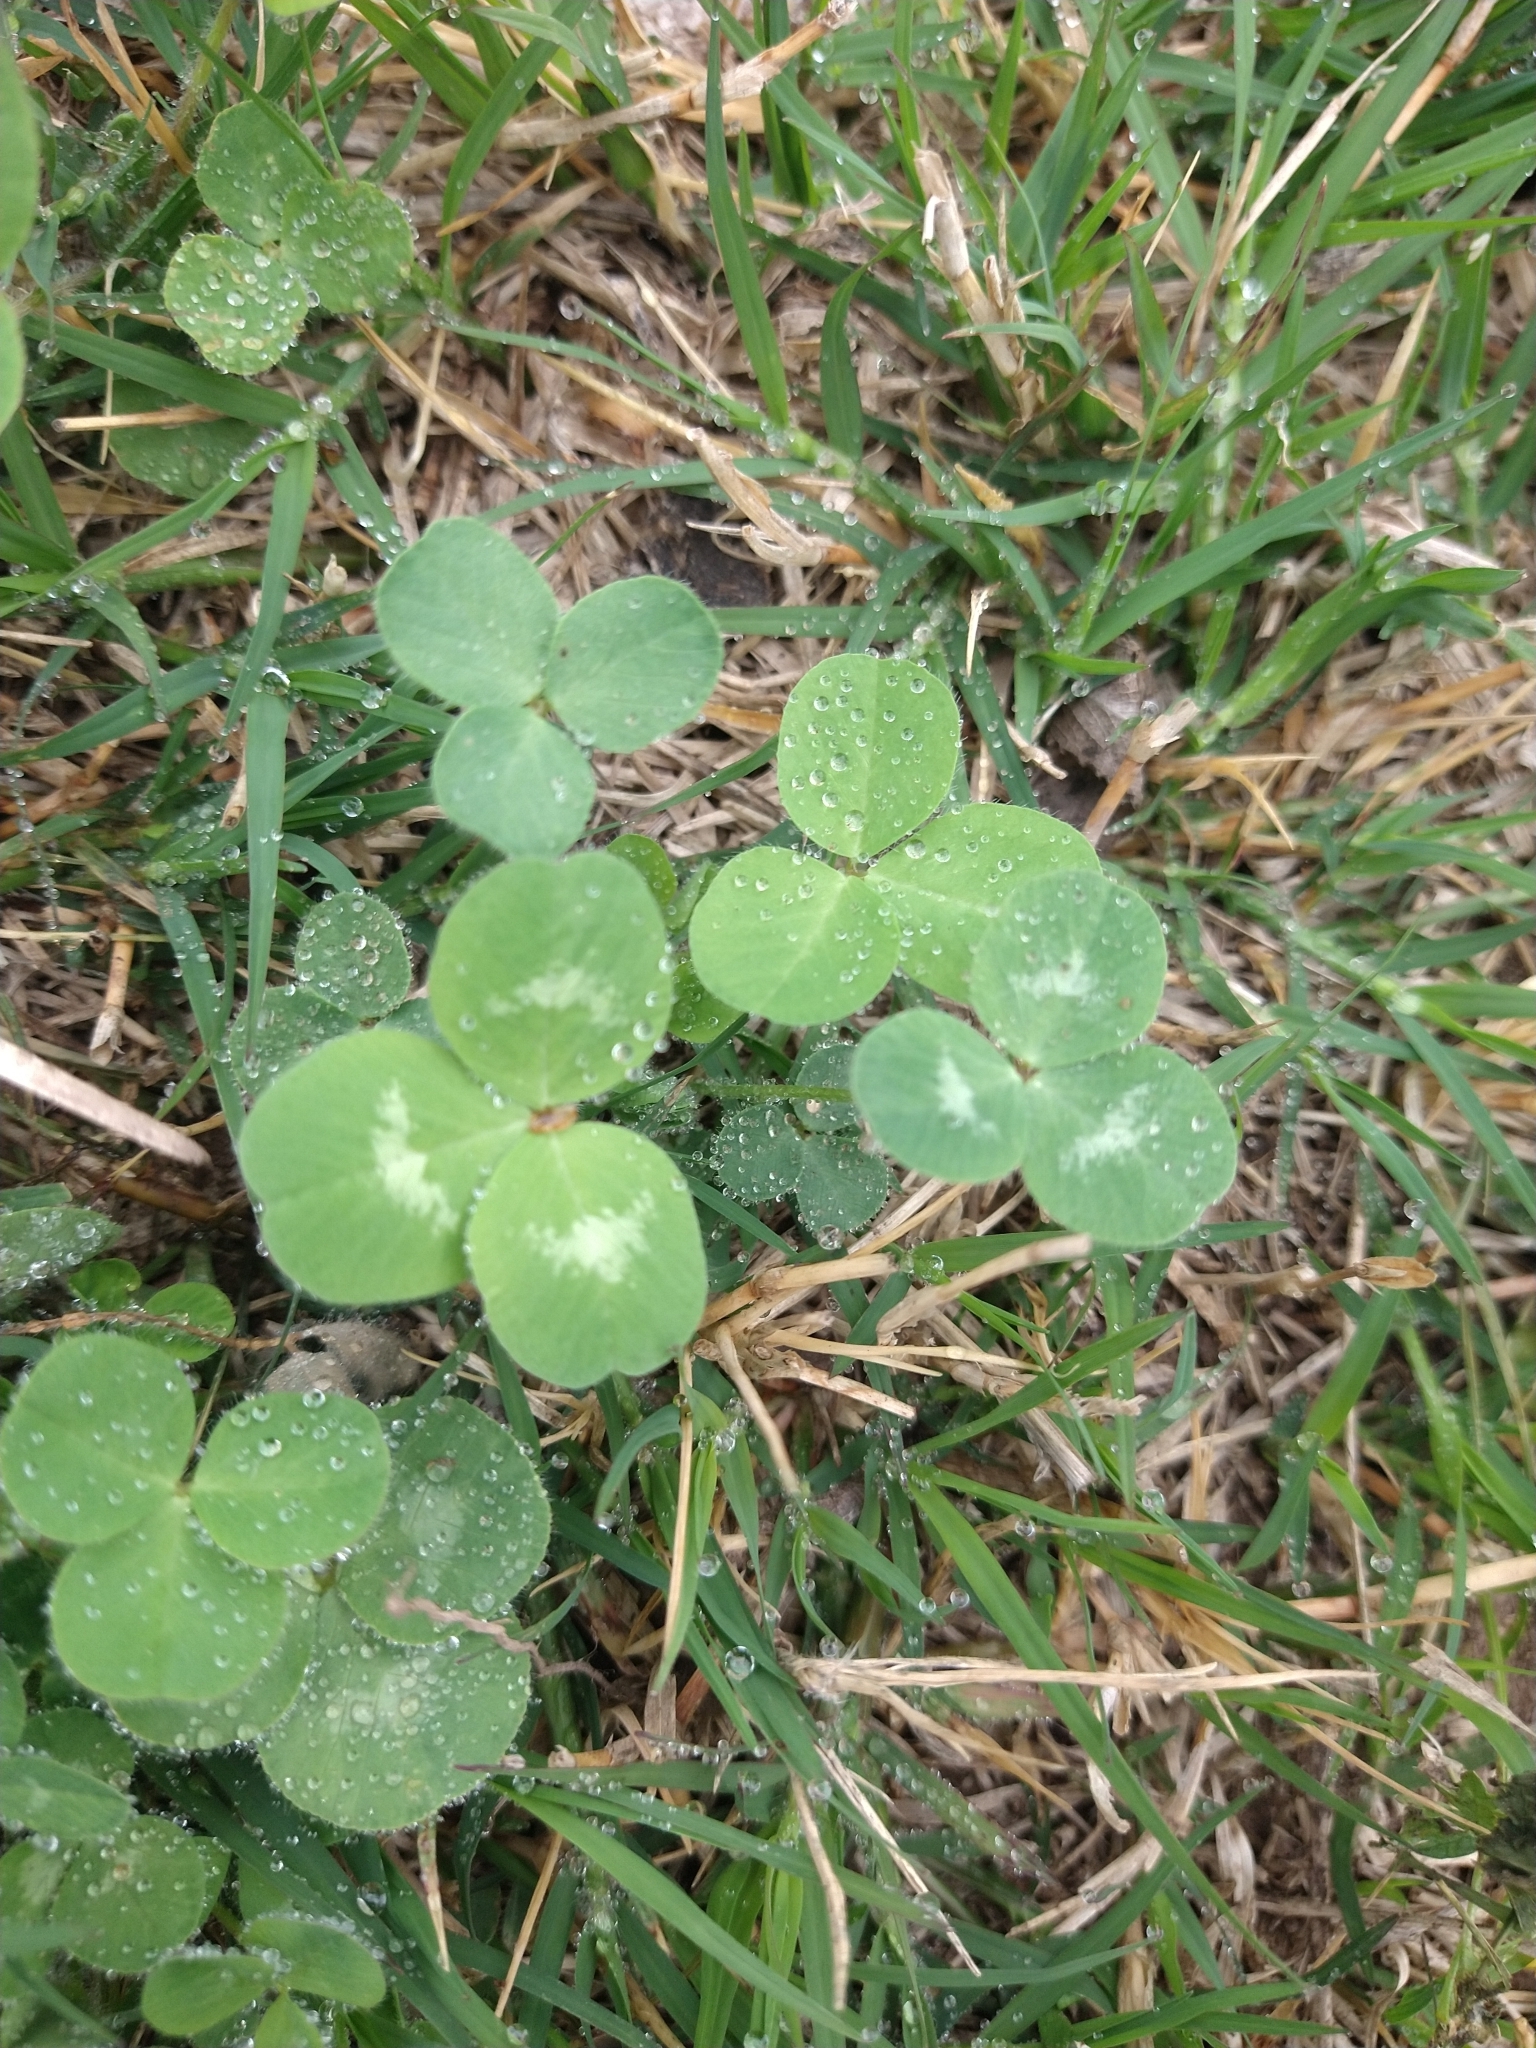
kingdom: Plantae
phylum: Tracheophyta
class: Magnoliopsida
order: Fabales
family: Fabaceae
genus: Trifolium
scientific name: Trifolium repens
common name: White clover
